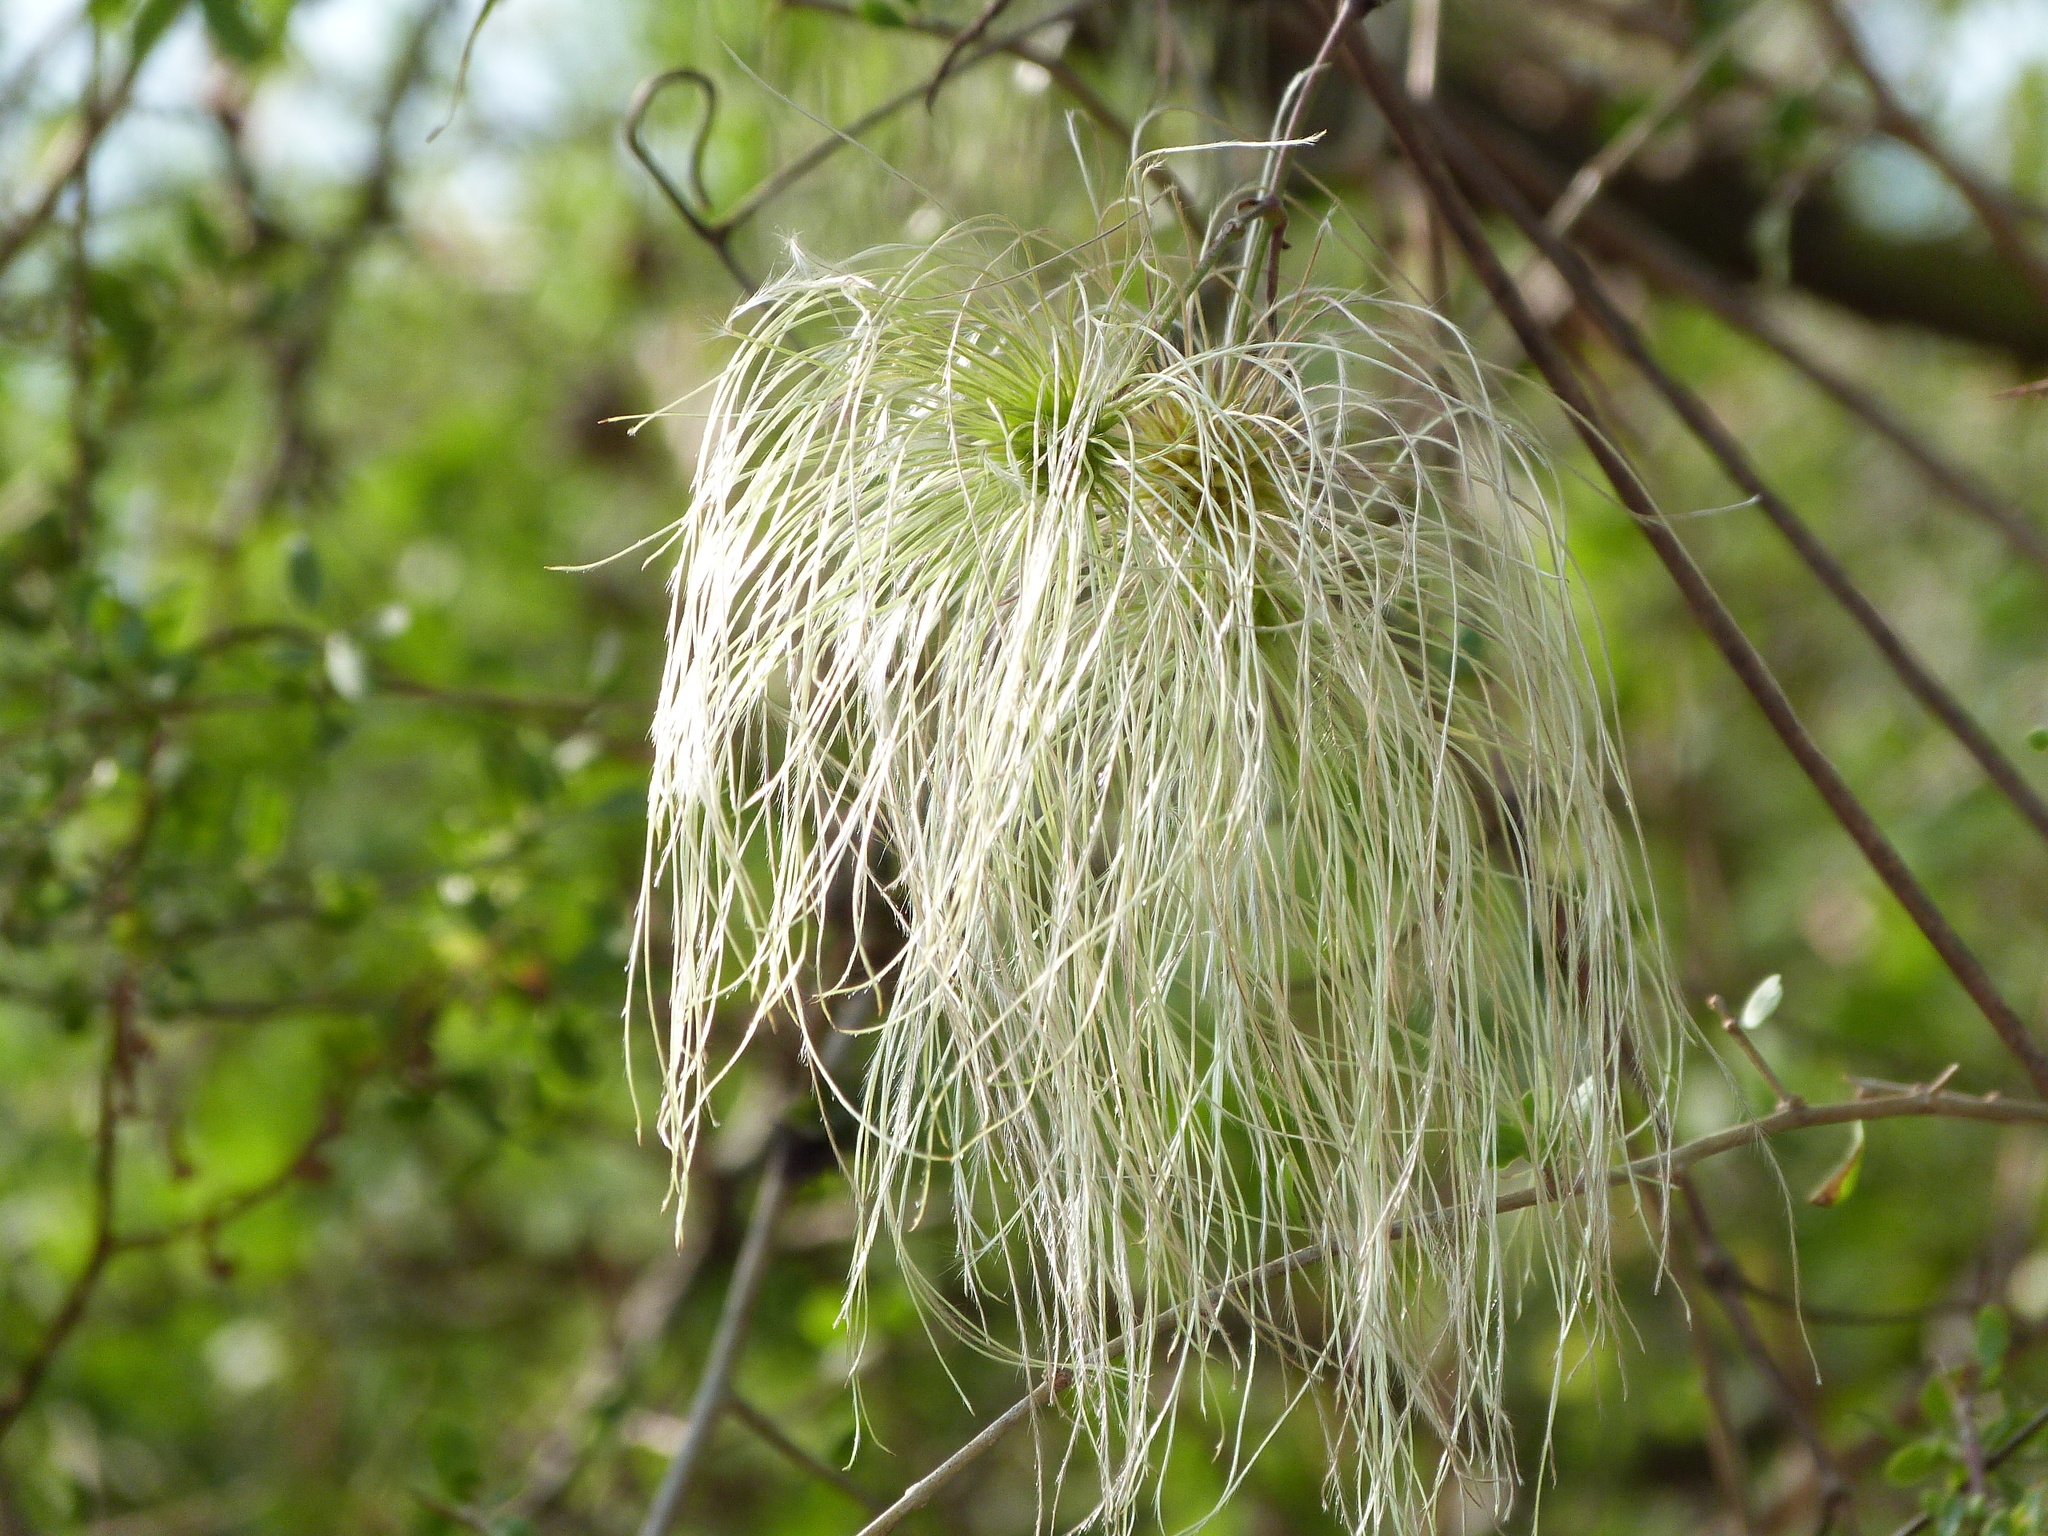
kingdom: Plantae
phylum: Tracheophyta
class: Magnoliopsida
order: Ranunculales
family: Ranunculaceae
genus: Clematis
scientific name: Clematis montevidensis
